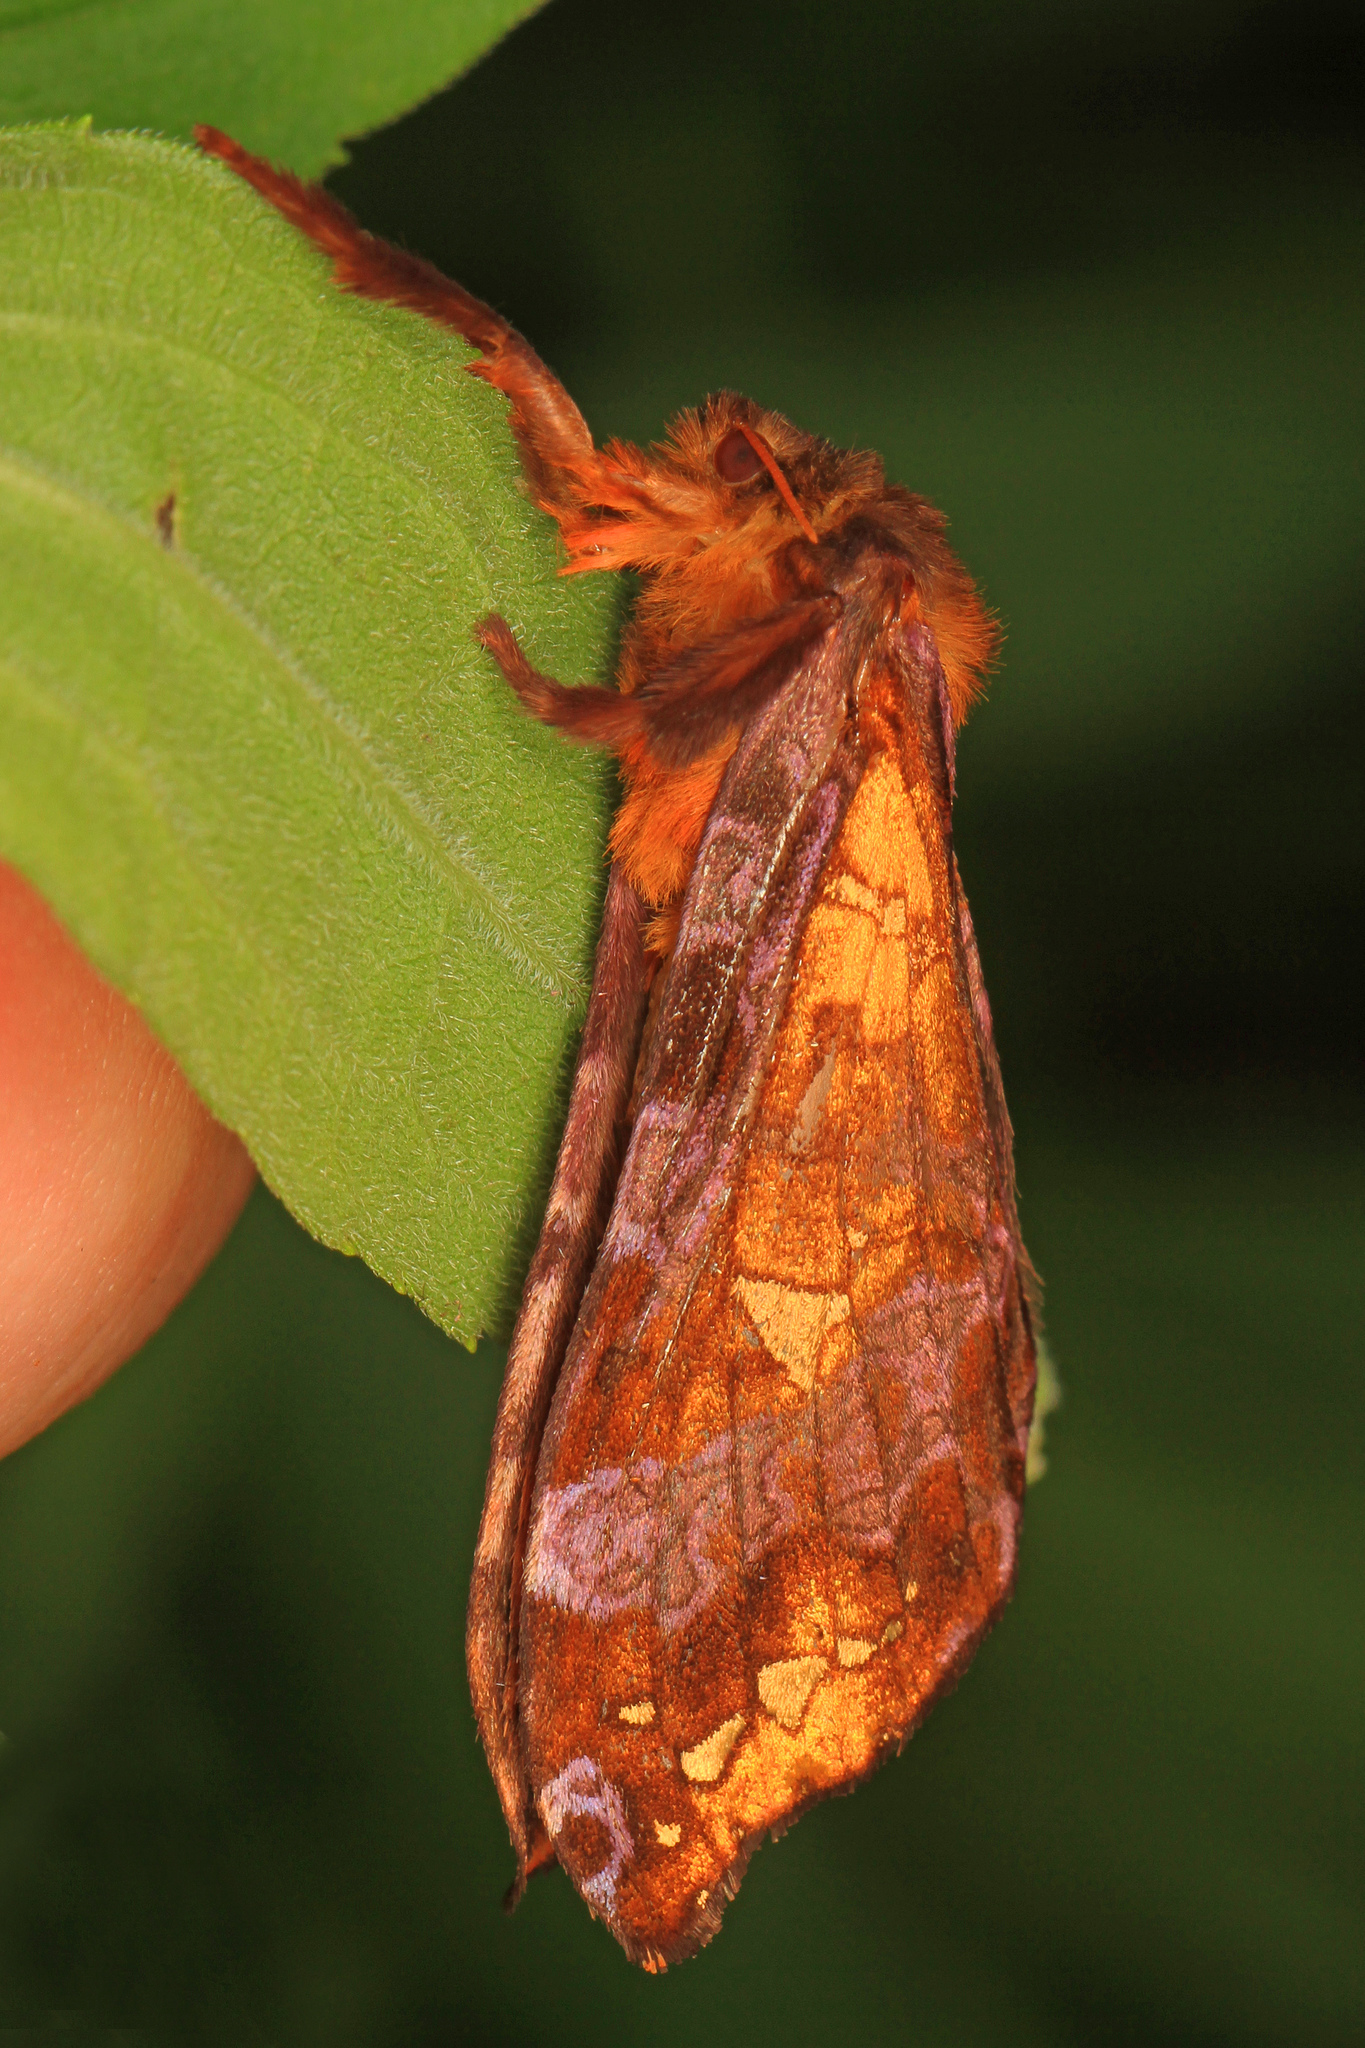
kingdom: Animalia
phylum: Arthropoda
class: Insecta
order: Lepidoptera
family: Hepialidae
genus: Sthenopis
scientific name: Sthenopis pretiosus
